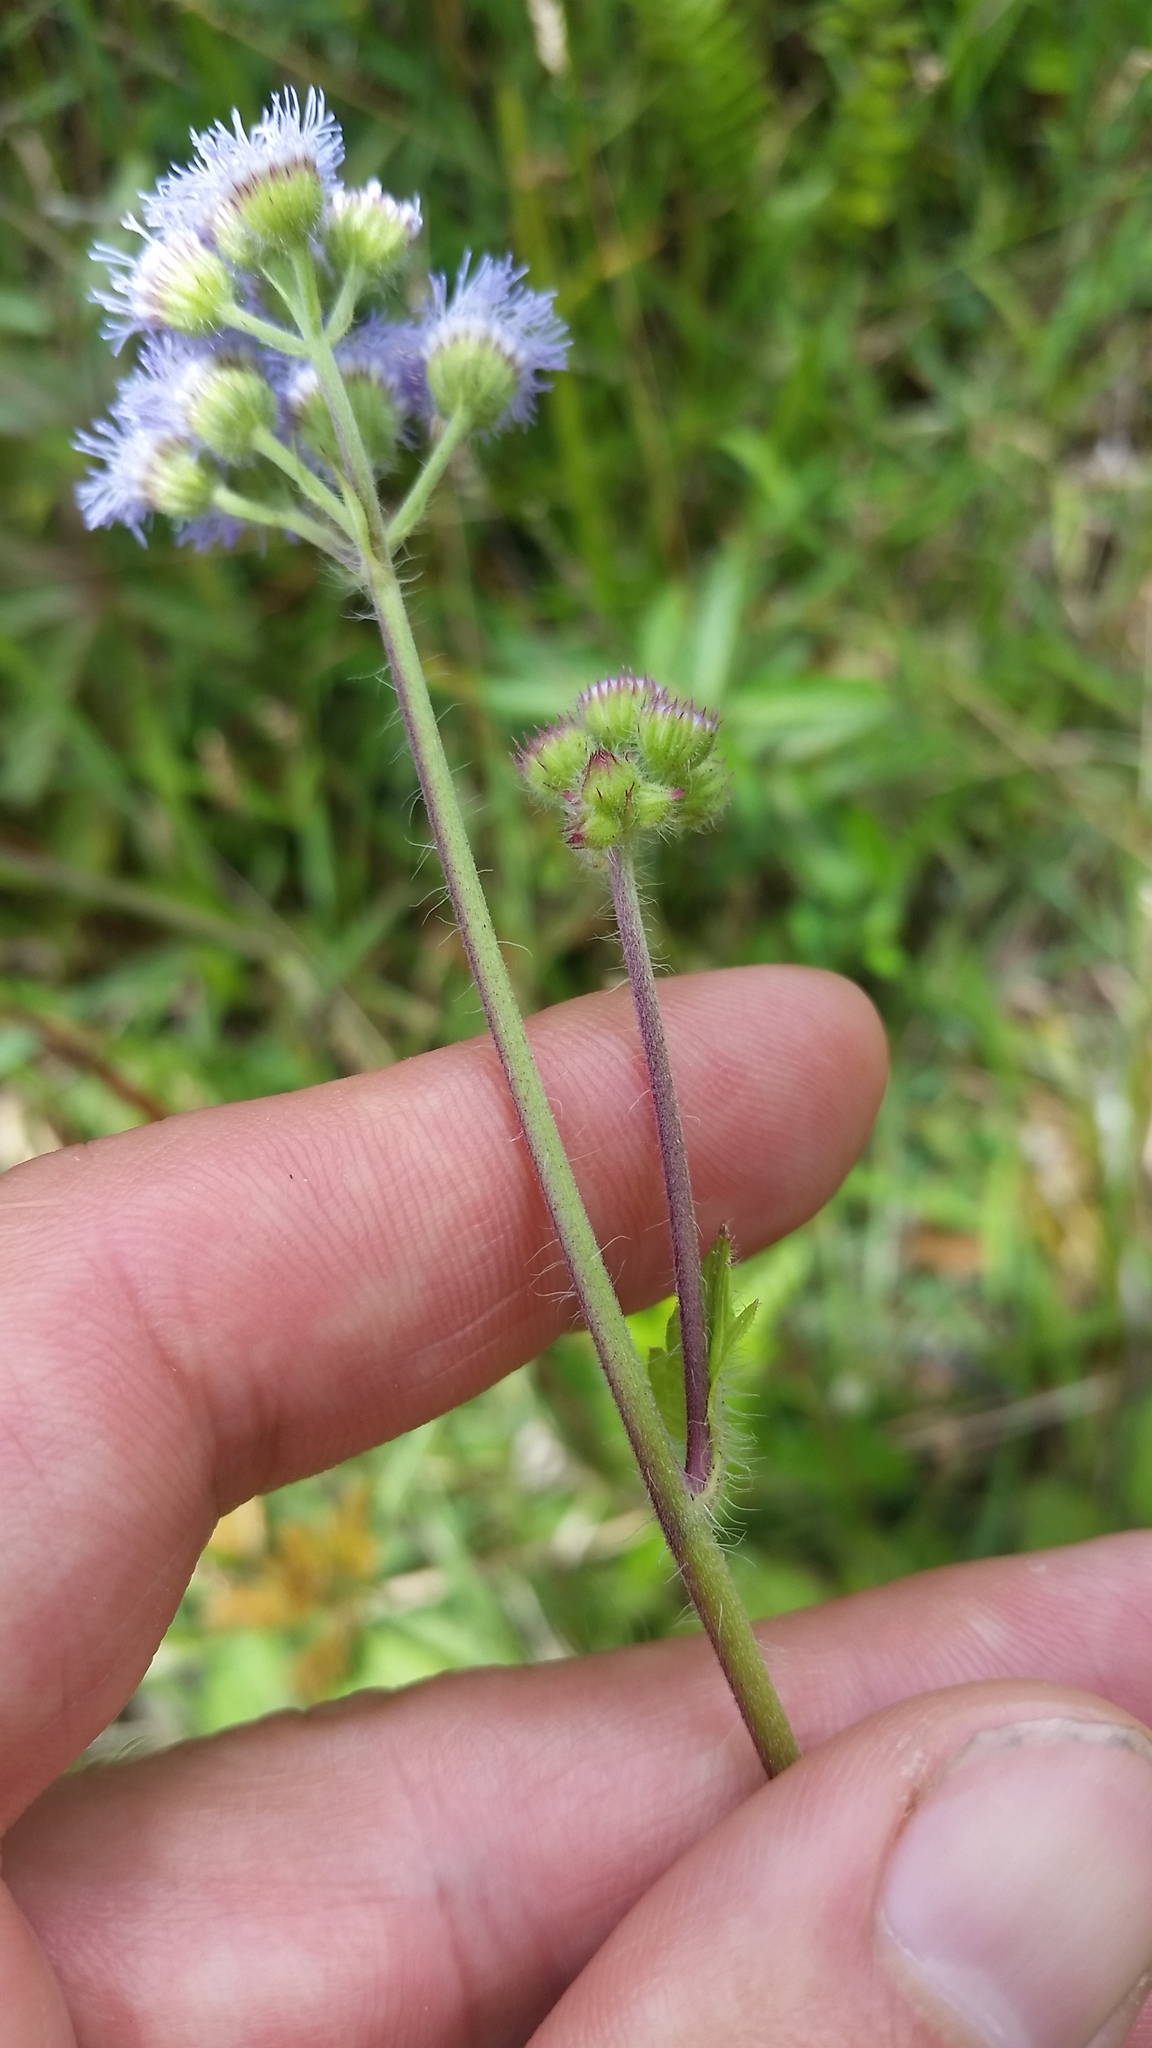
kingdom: Plantae
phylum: Tracheophyta
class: Magnoliopsida
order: Asterales
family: Asteraceae
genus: Ageratum
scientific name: Ageratum conyzoides
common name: Tropical whiteweed
